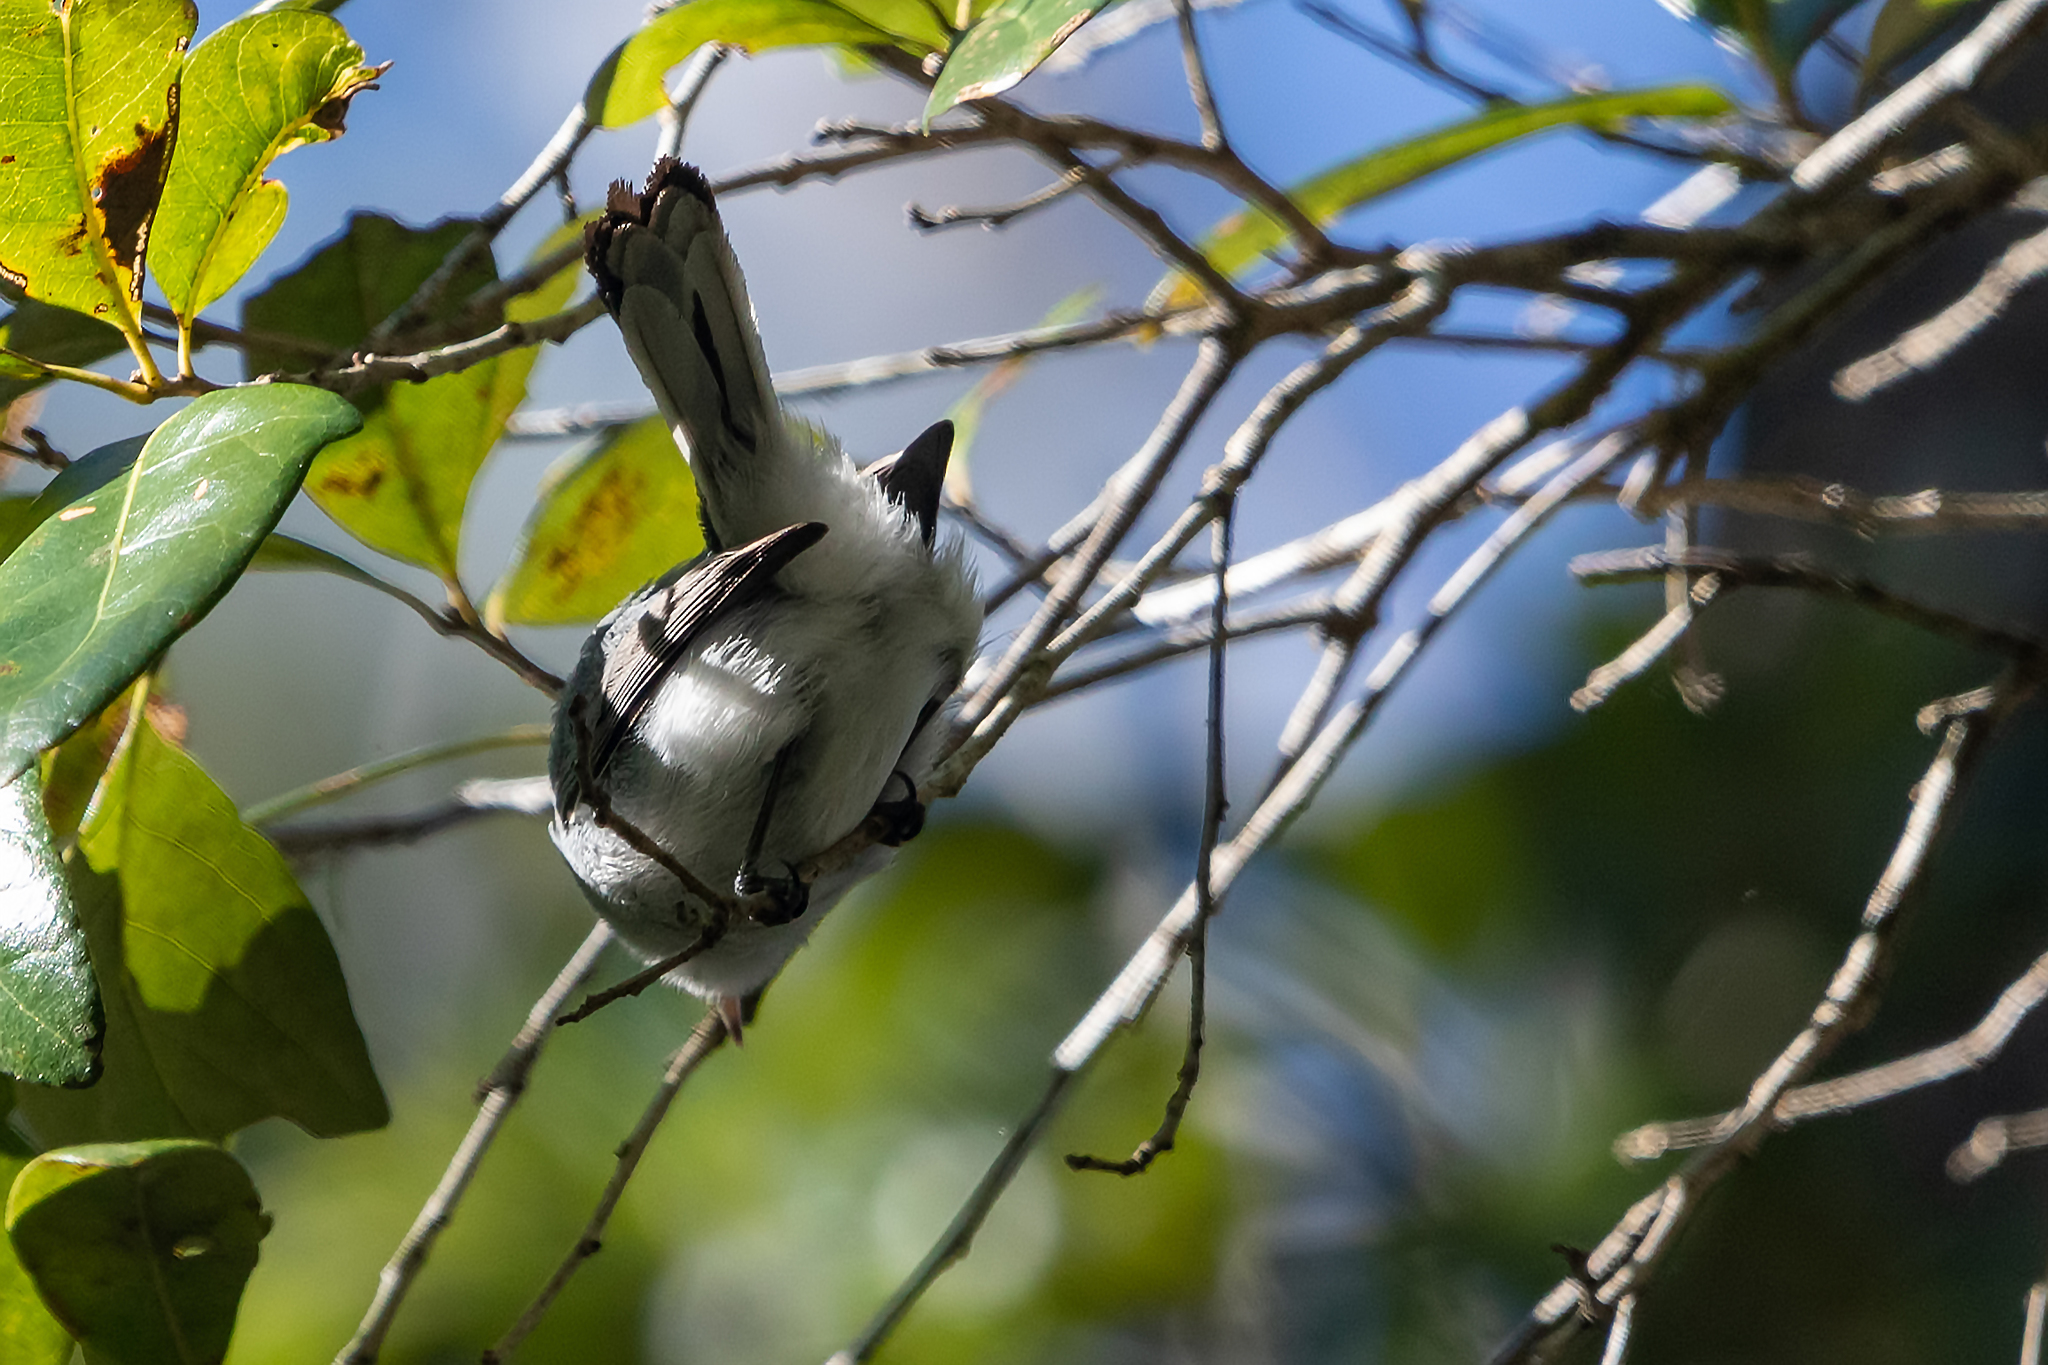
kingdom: Animalia
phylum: Chordata
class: Aves
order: Passeriformes
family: Polioptilidae
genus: Polioptila
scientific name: Polioptila caerulea
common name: Blue-gray gnatcatcher
